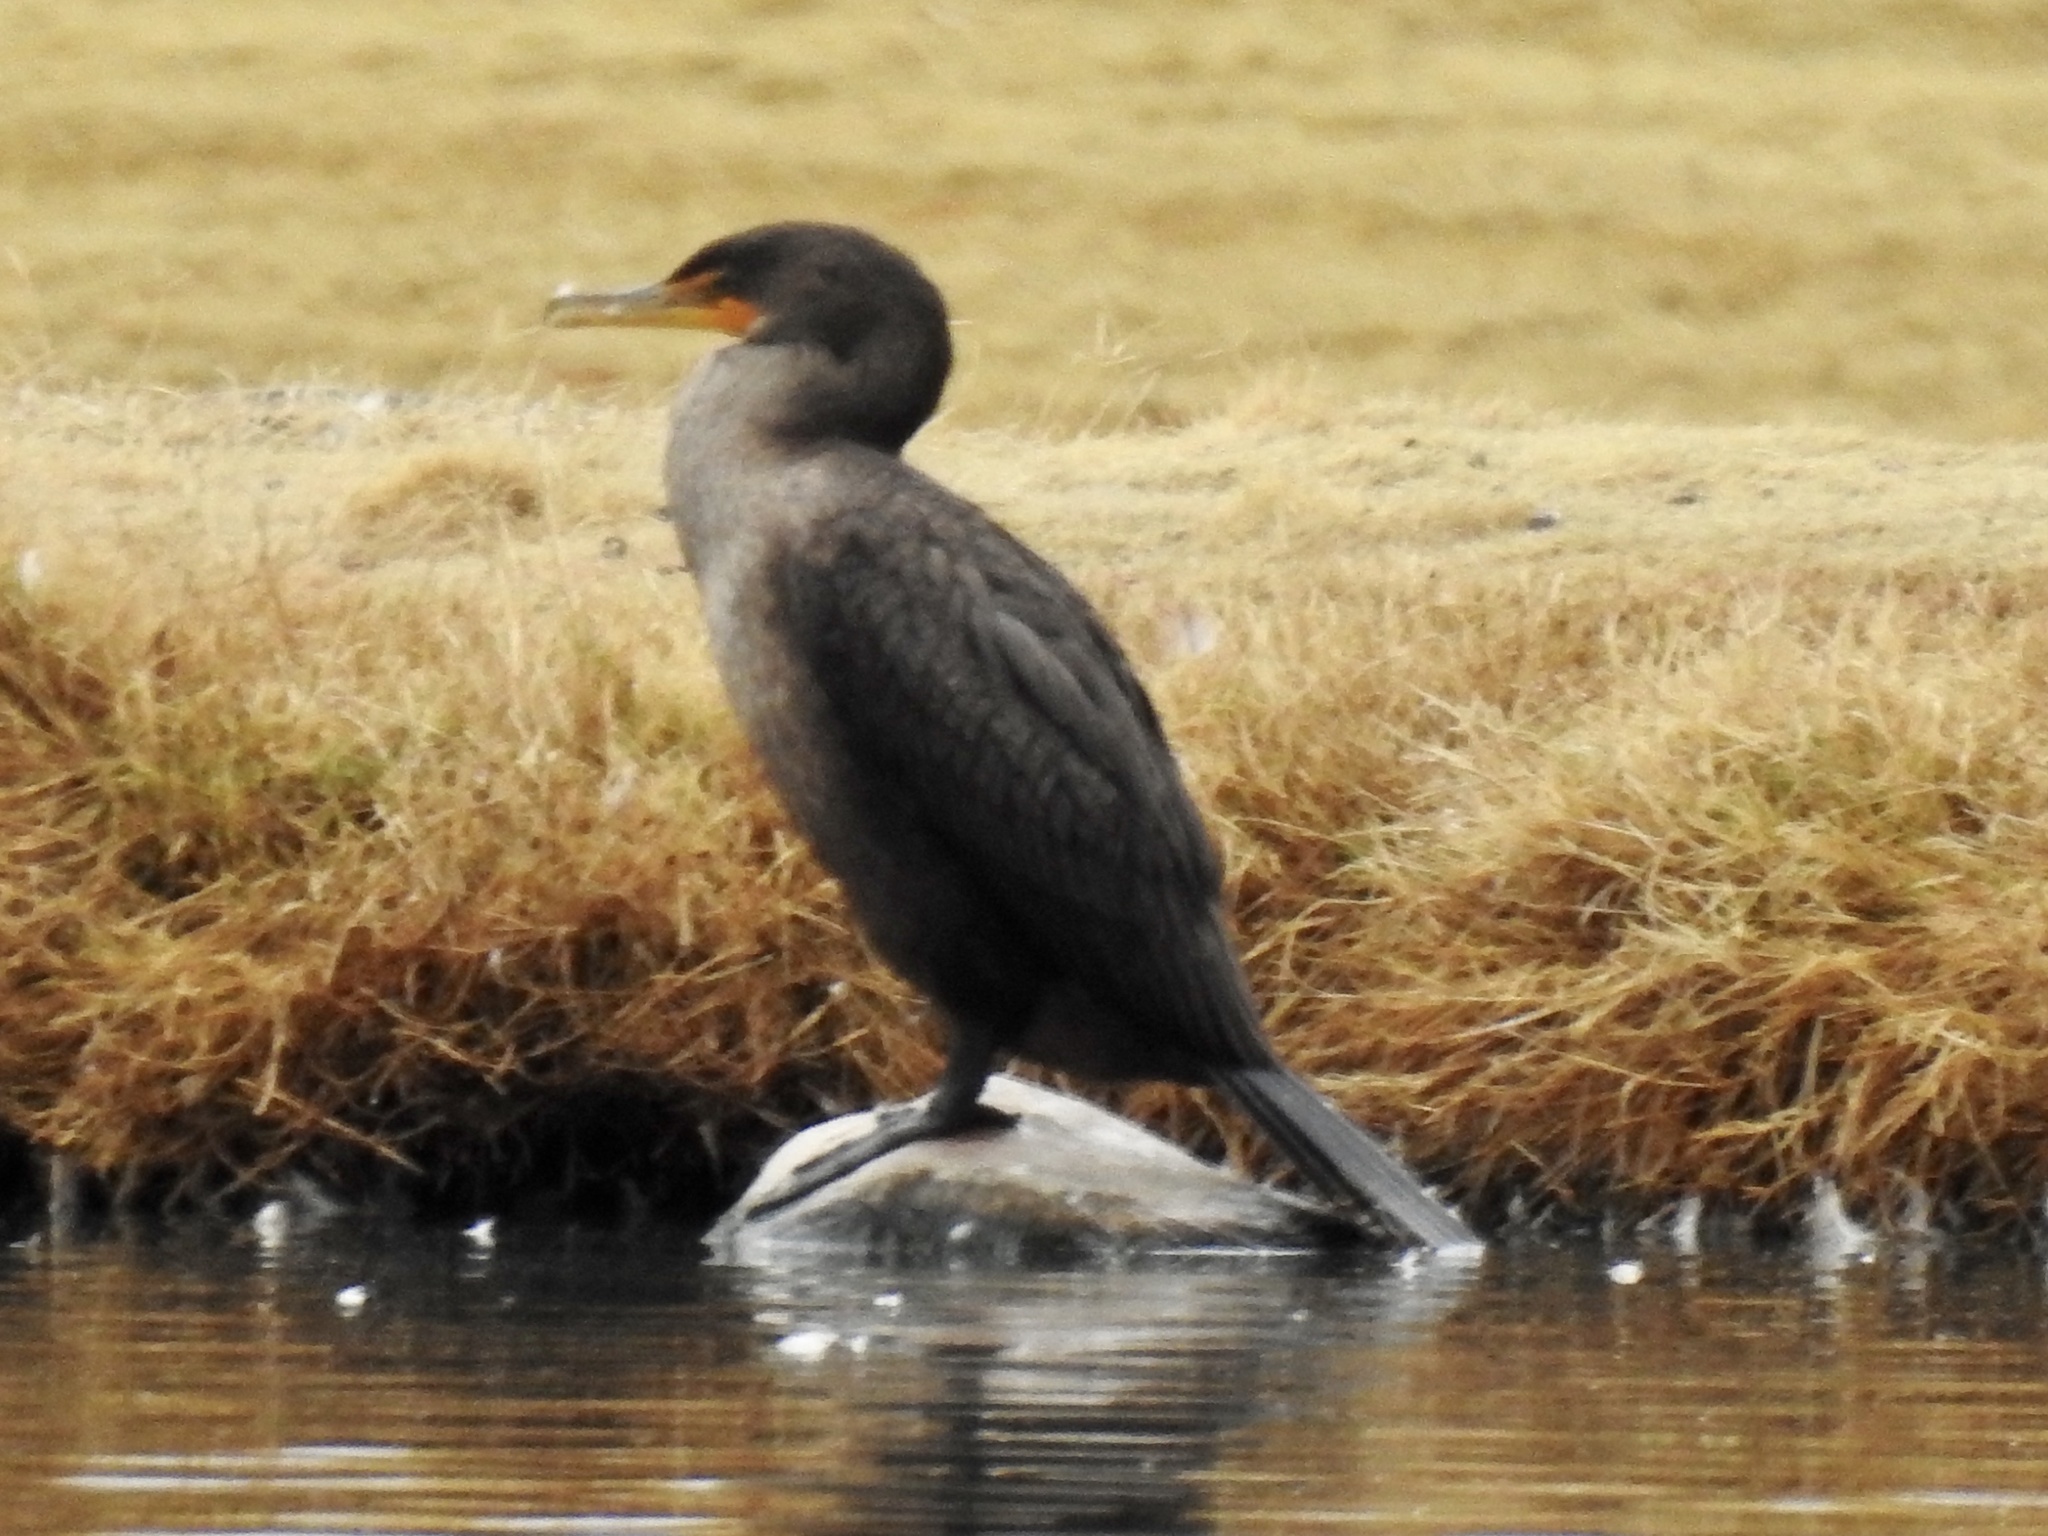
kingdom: Animalia
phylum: Chordata
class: Aves
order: Suliformes
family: Phalacrocoracidae
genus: Phalacrocorax
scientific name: Phalacrocorax auritus
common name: Double-crested cormorant
